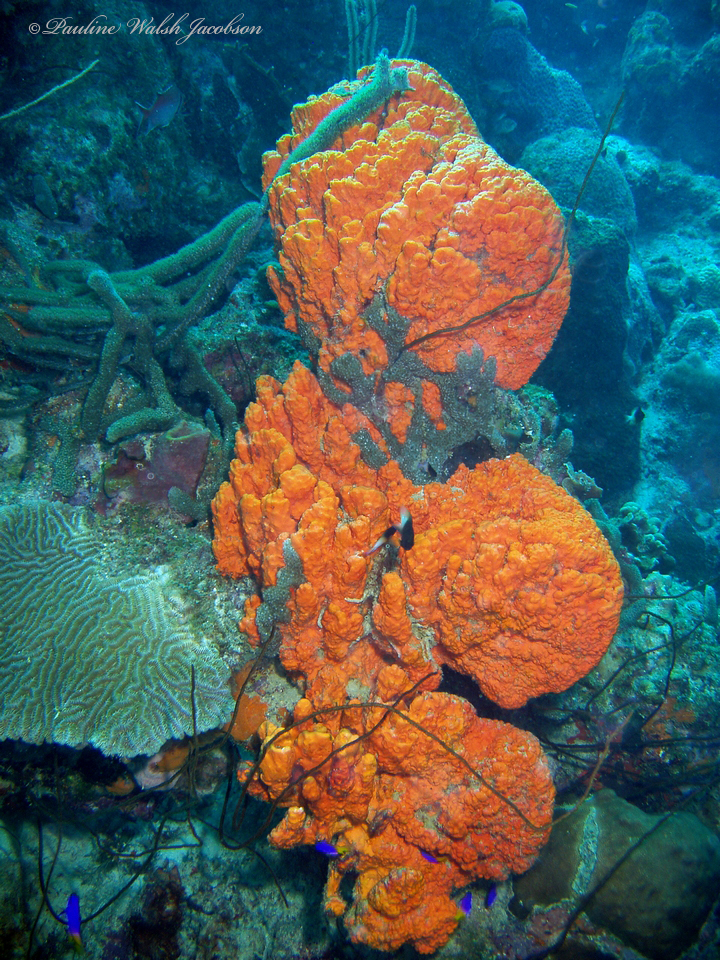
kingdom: Animalia
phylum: Porifera
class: Demospongiae
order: Agelasida
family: Agelasidae
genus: Agelas
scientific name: Agelas clathrodes
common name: Orange elephant ear sponge
